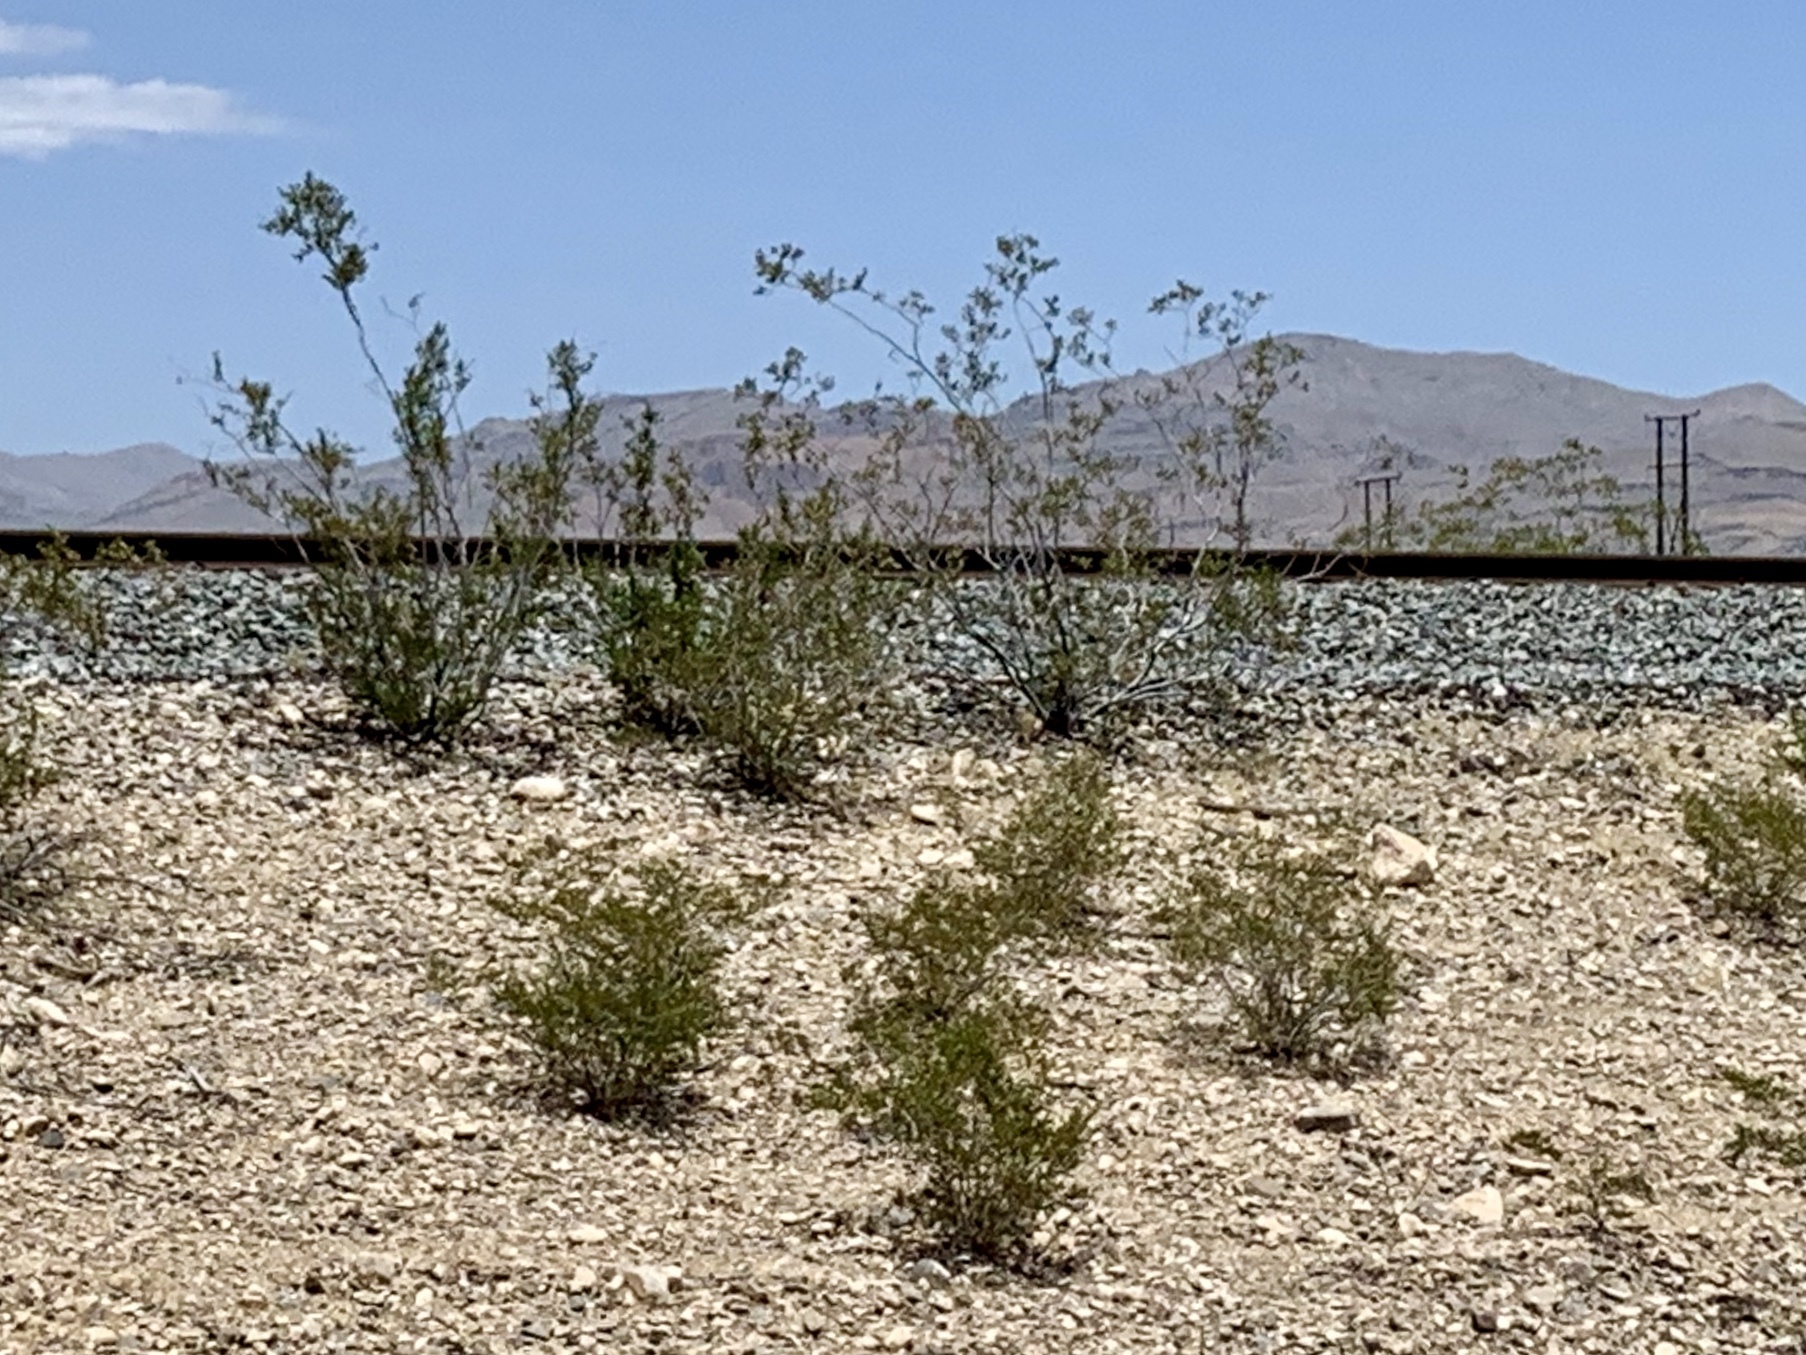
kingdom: Plantae
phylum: Tracheophyta
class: Magnoliopsida
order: Zygophyllales
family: Zygophyllaceae
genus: Larrea
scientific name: Larrea tridentata
